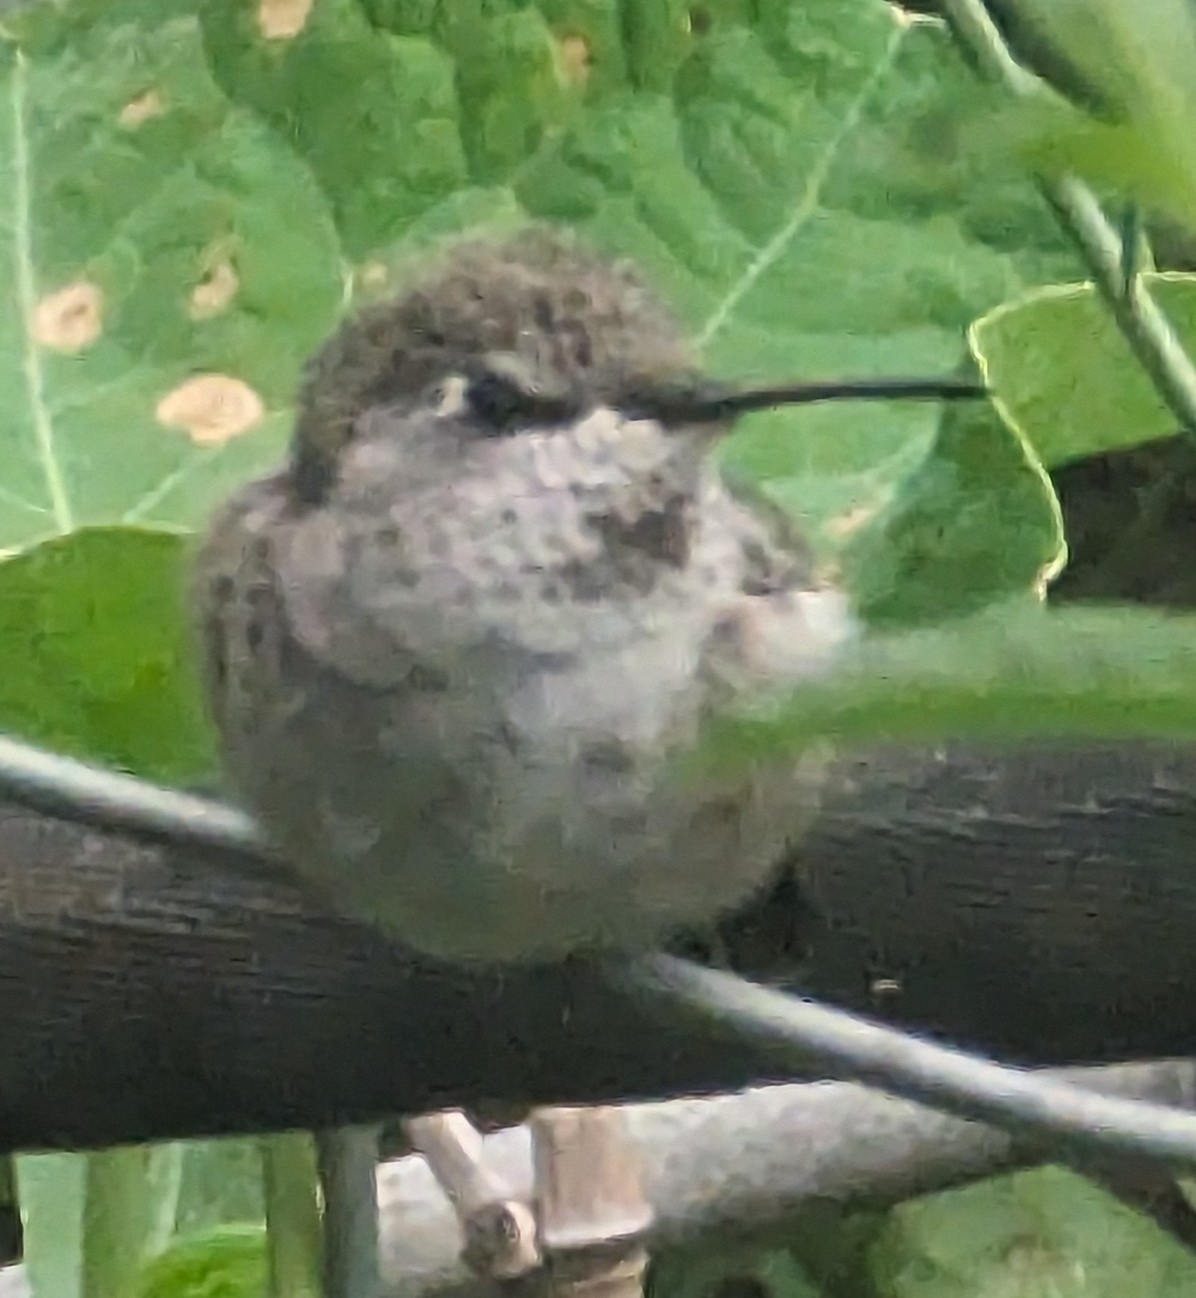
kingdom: Animalia
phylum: Chordata
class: Aves
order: Apodiformes
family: Trochilidae
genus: Calypte
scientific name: Calypte anna
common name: Anna's hummingbird
